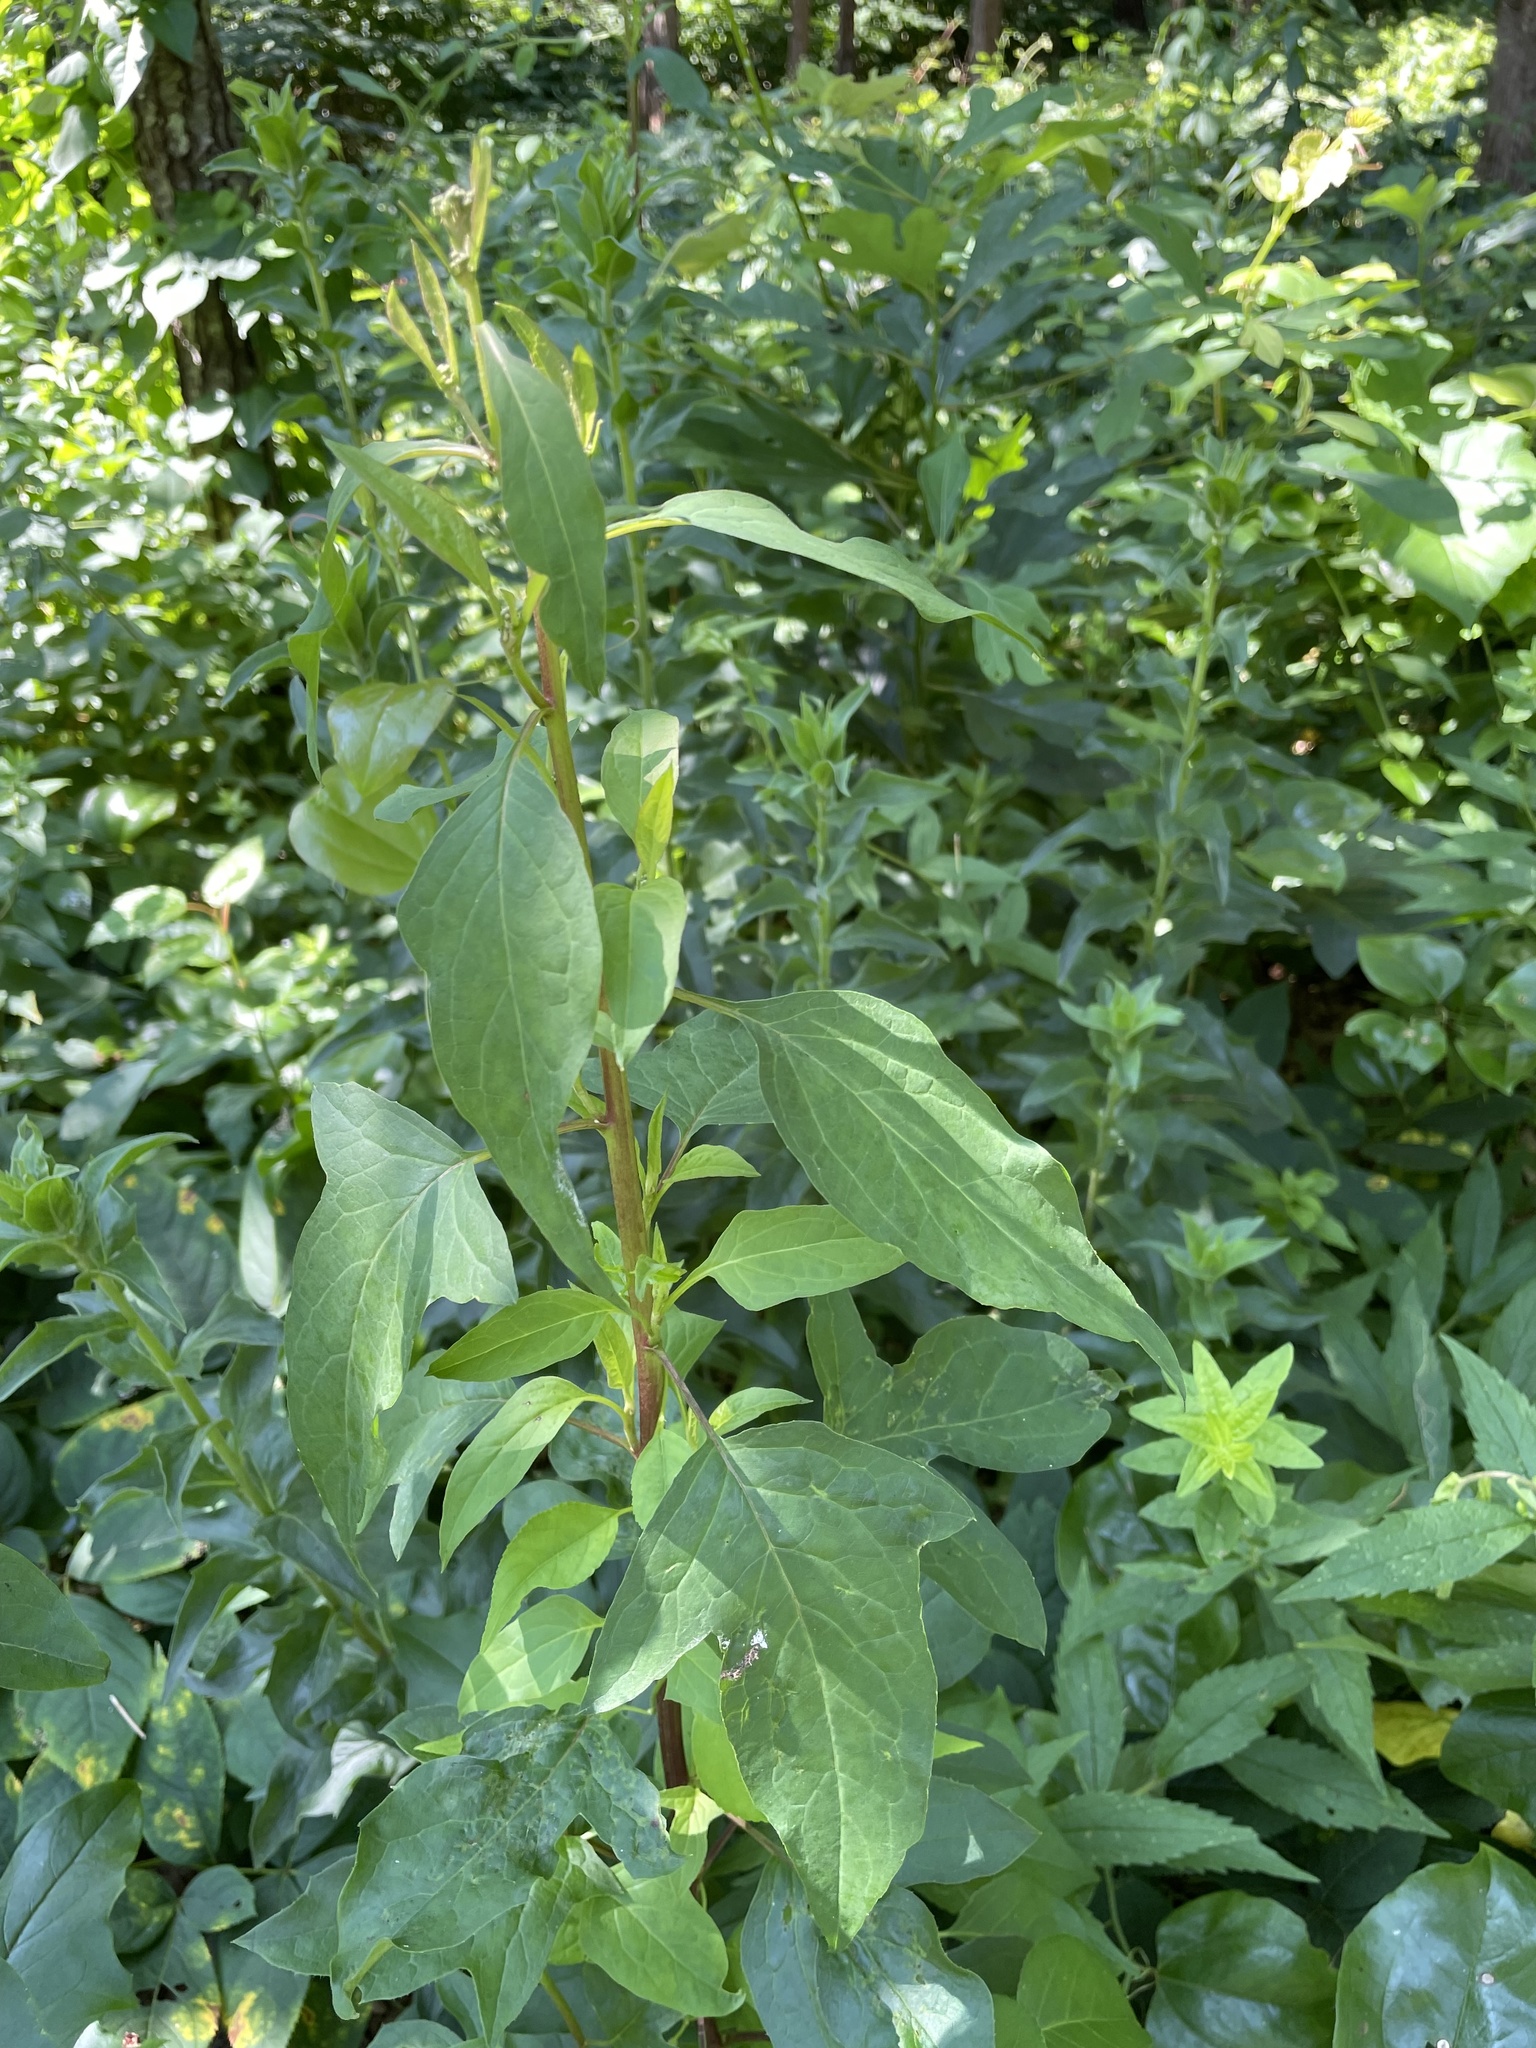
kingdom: Plantae
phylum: Tracheophyta
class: Magnoliopsida
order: Asterales
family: Asteraceae
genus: Nabalus
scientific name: Nabalus trifoliolatus
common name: Gall-of-the-earth
